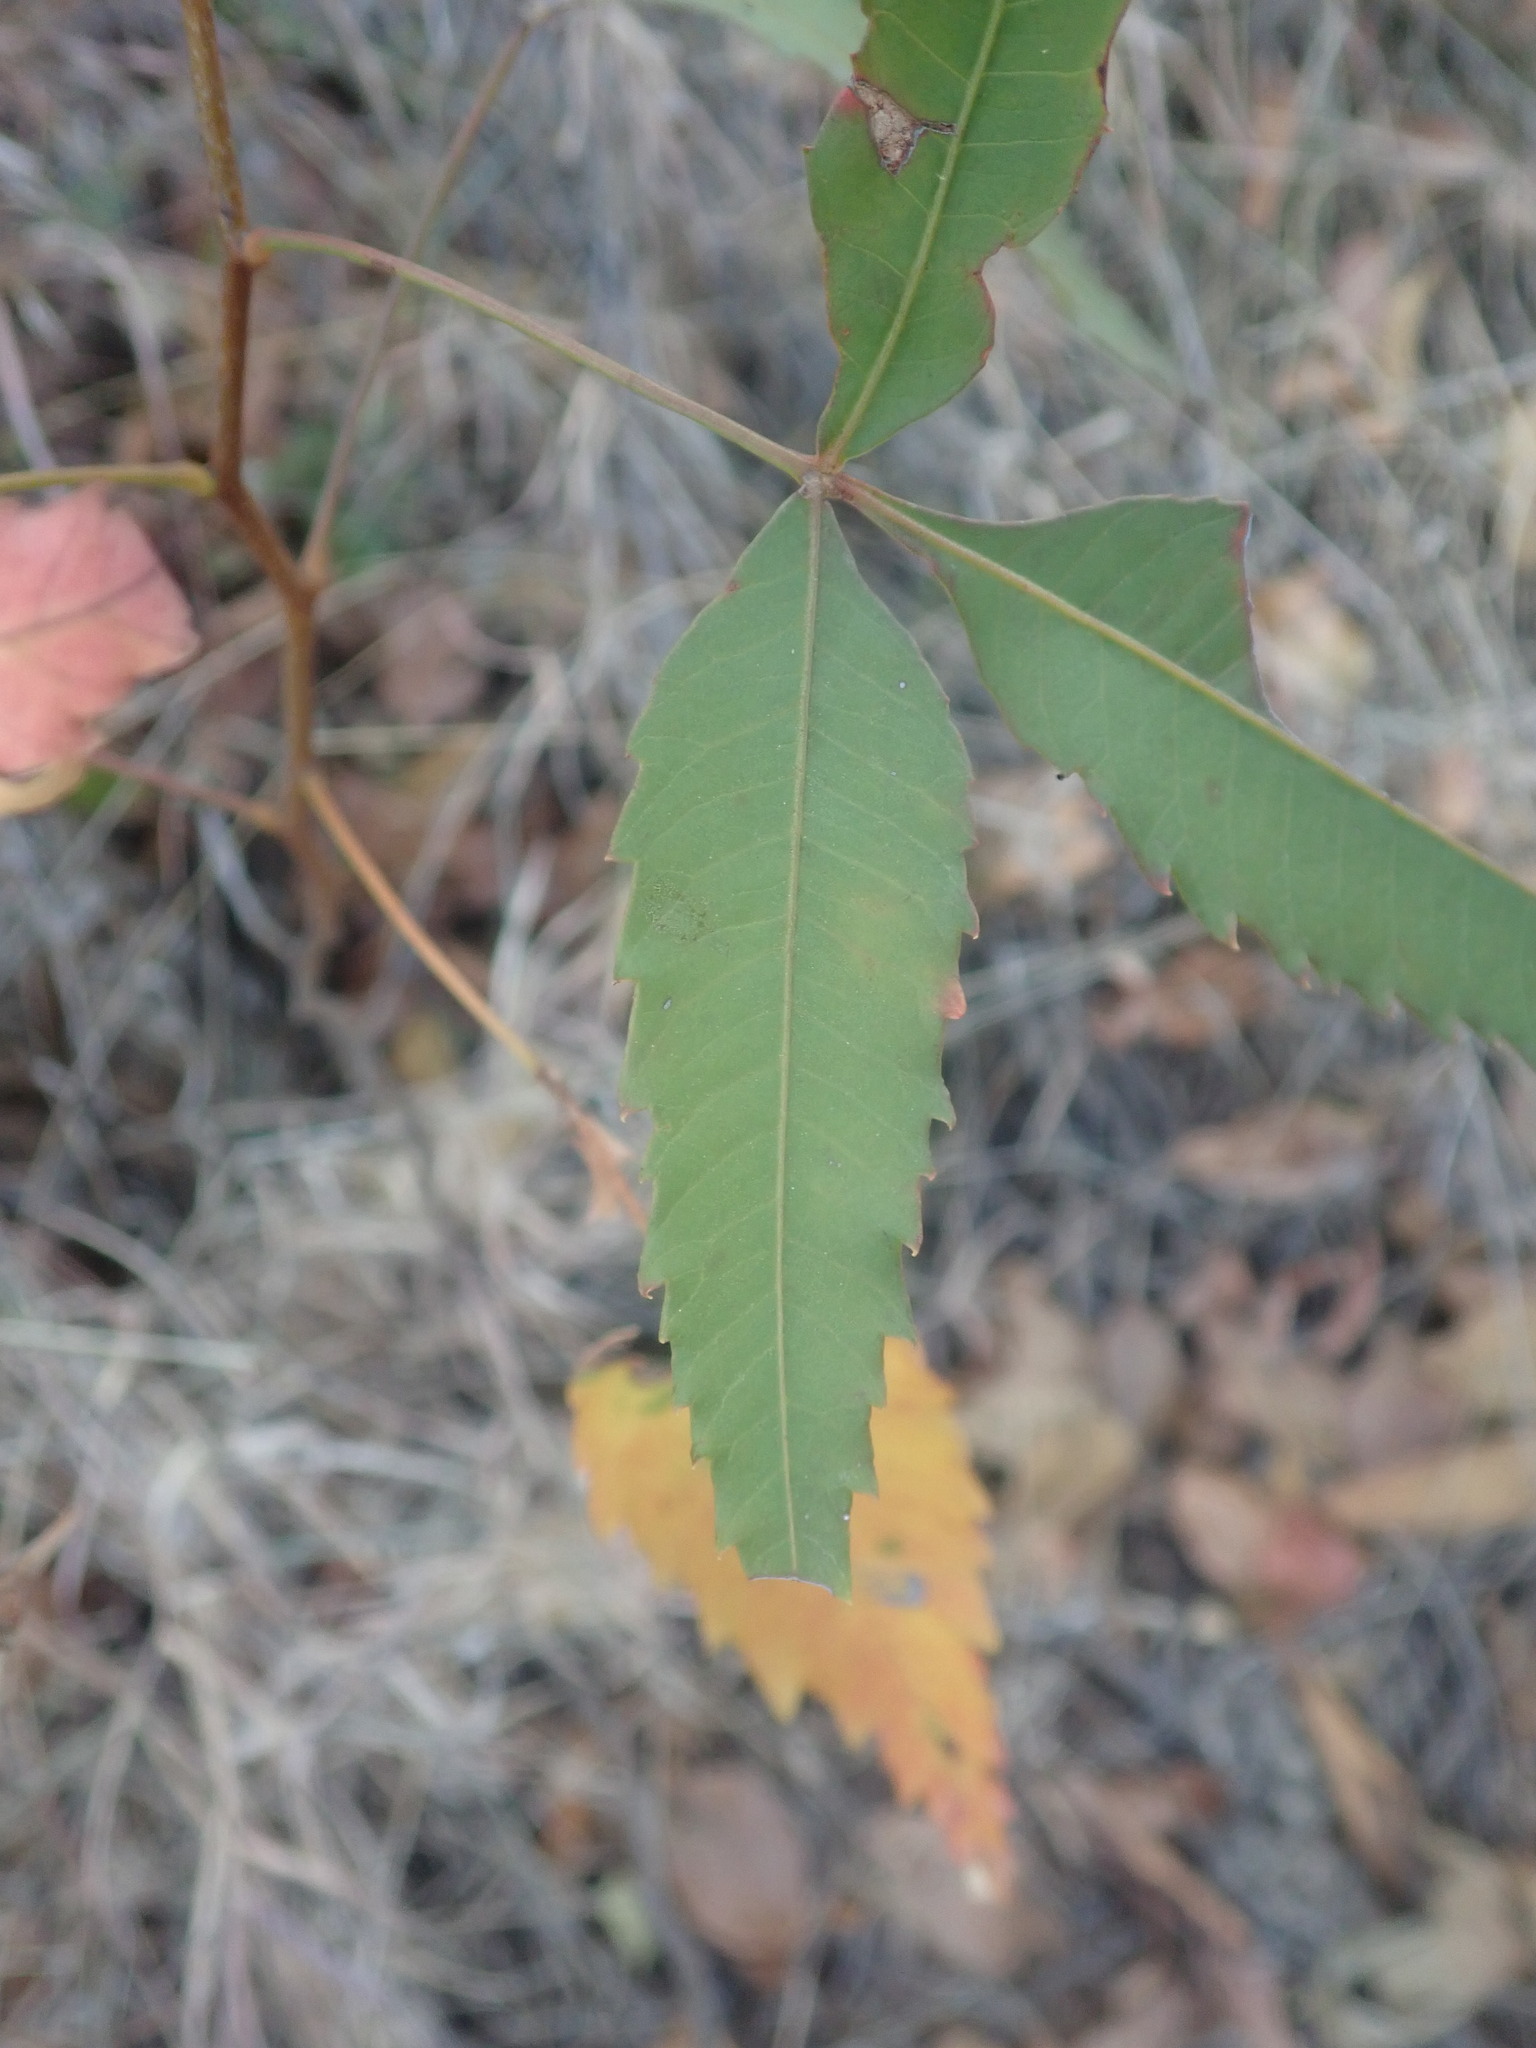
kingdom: Plantae
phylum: Tracheophyta
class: Magnoliopsida
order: Celastrales
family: Celastraceae
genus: Elaeodendron
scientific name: Elaeodendron transvaalense
